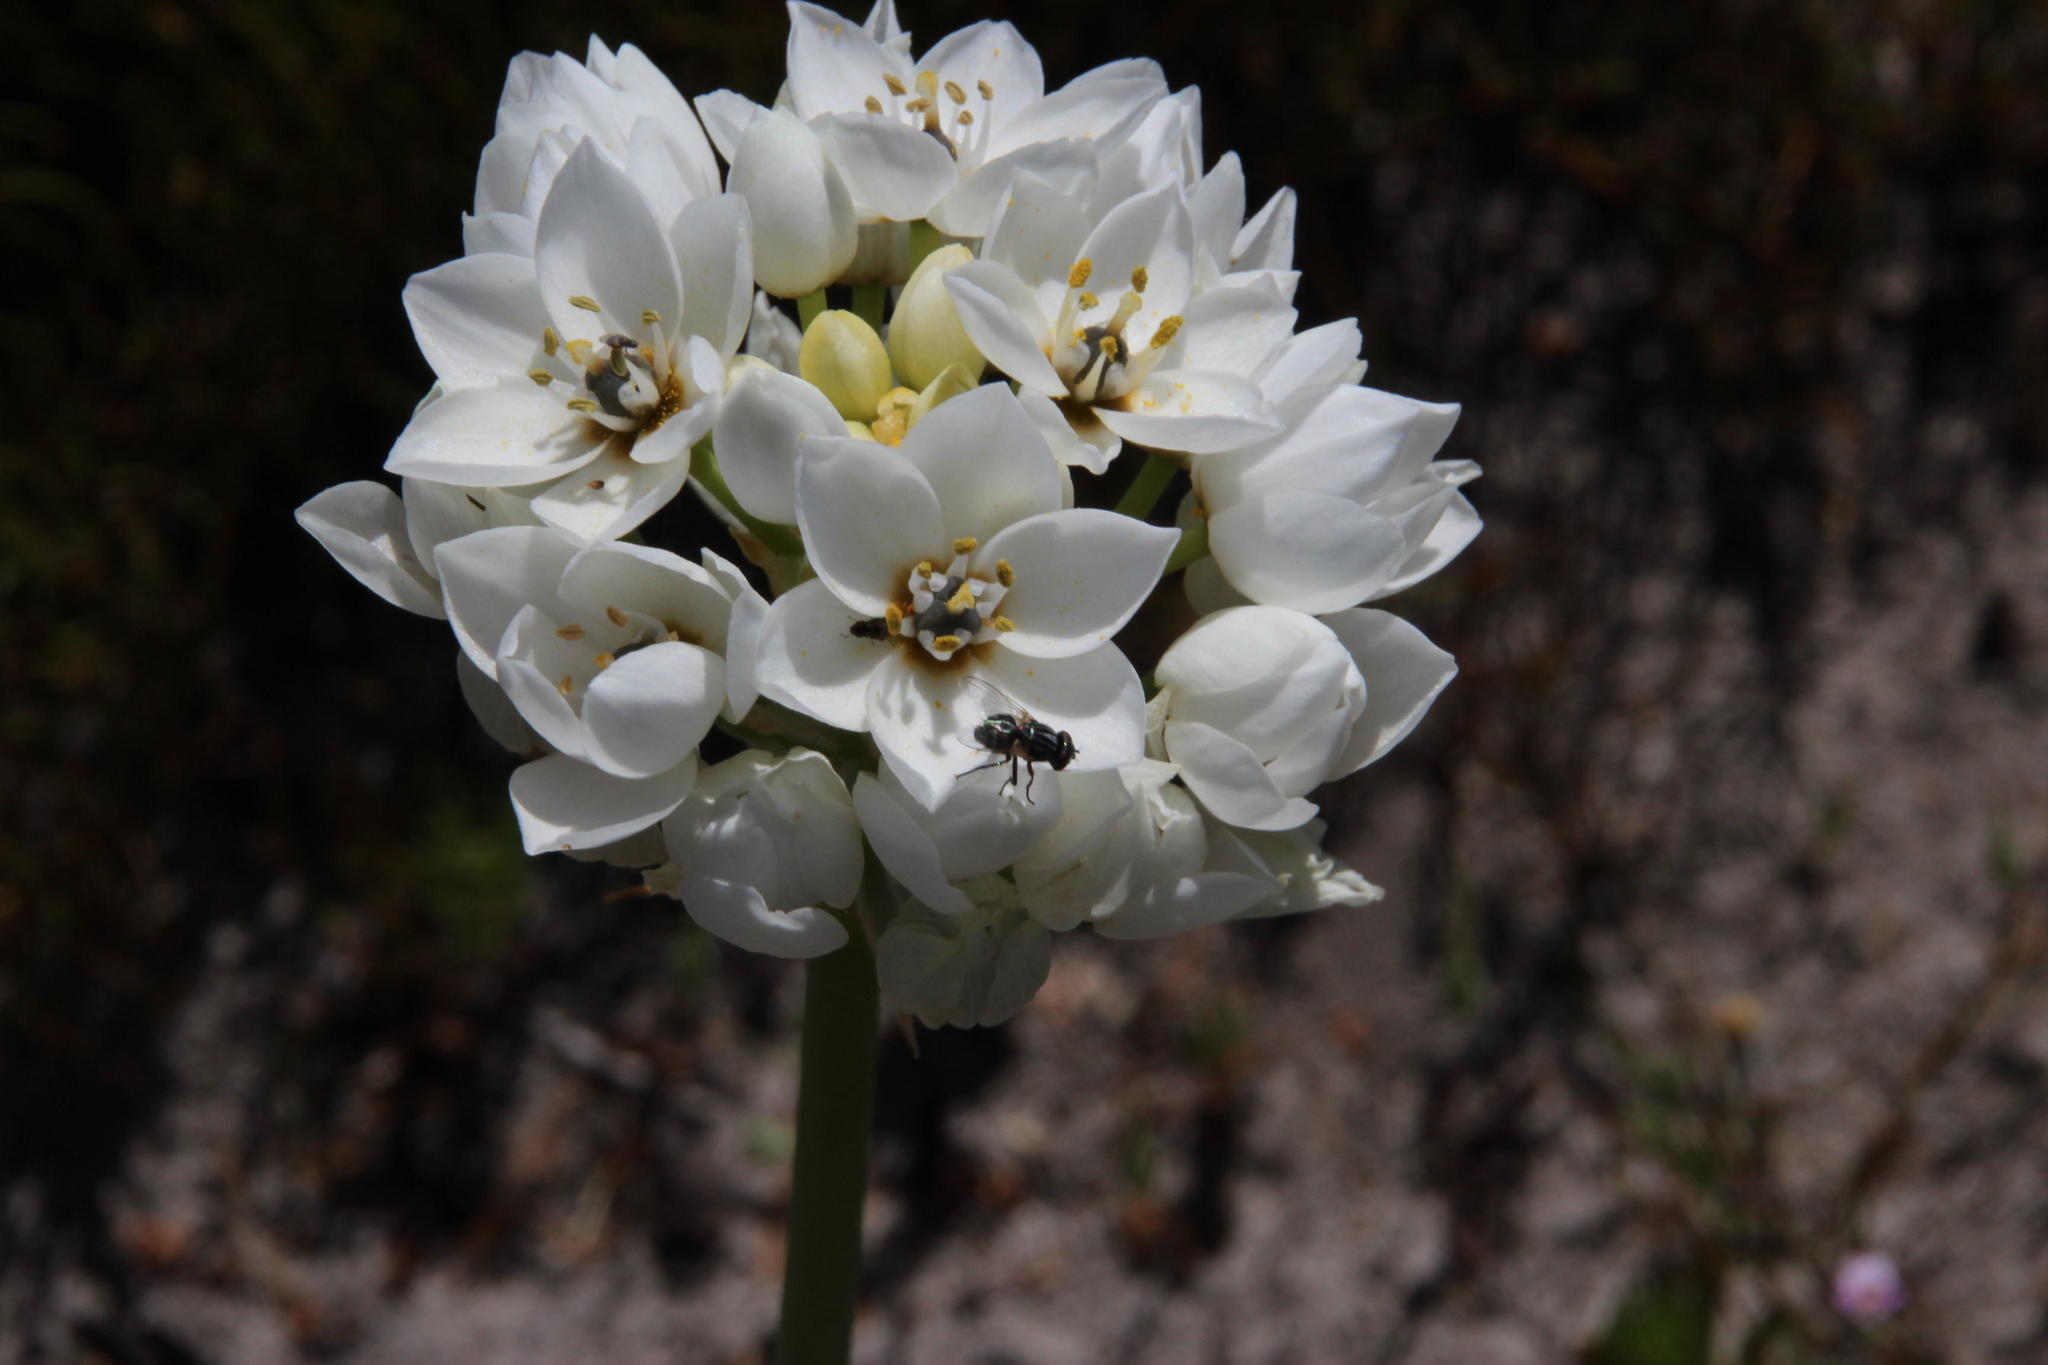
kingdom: Plantae
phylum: Tracheophyta
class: Liliopsida
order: Asparagales
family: Asparagaceae
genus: Ornithogalum
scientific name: Ornithogalum thyrsoides
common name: Chincherinchee
